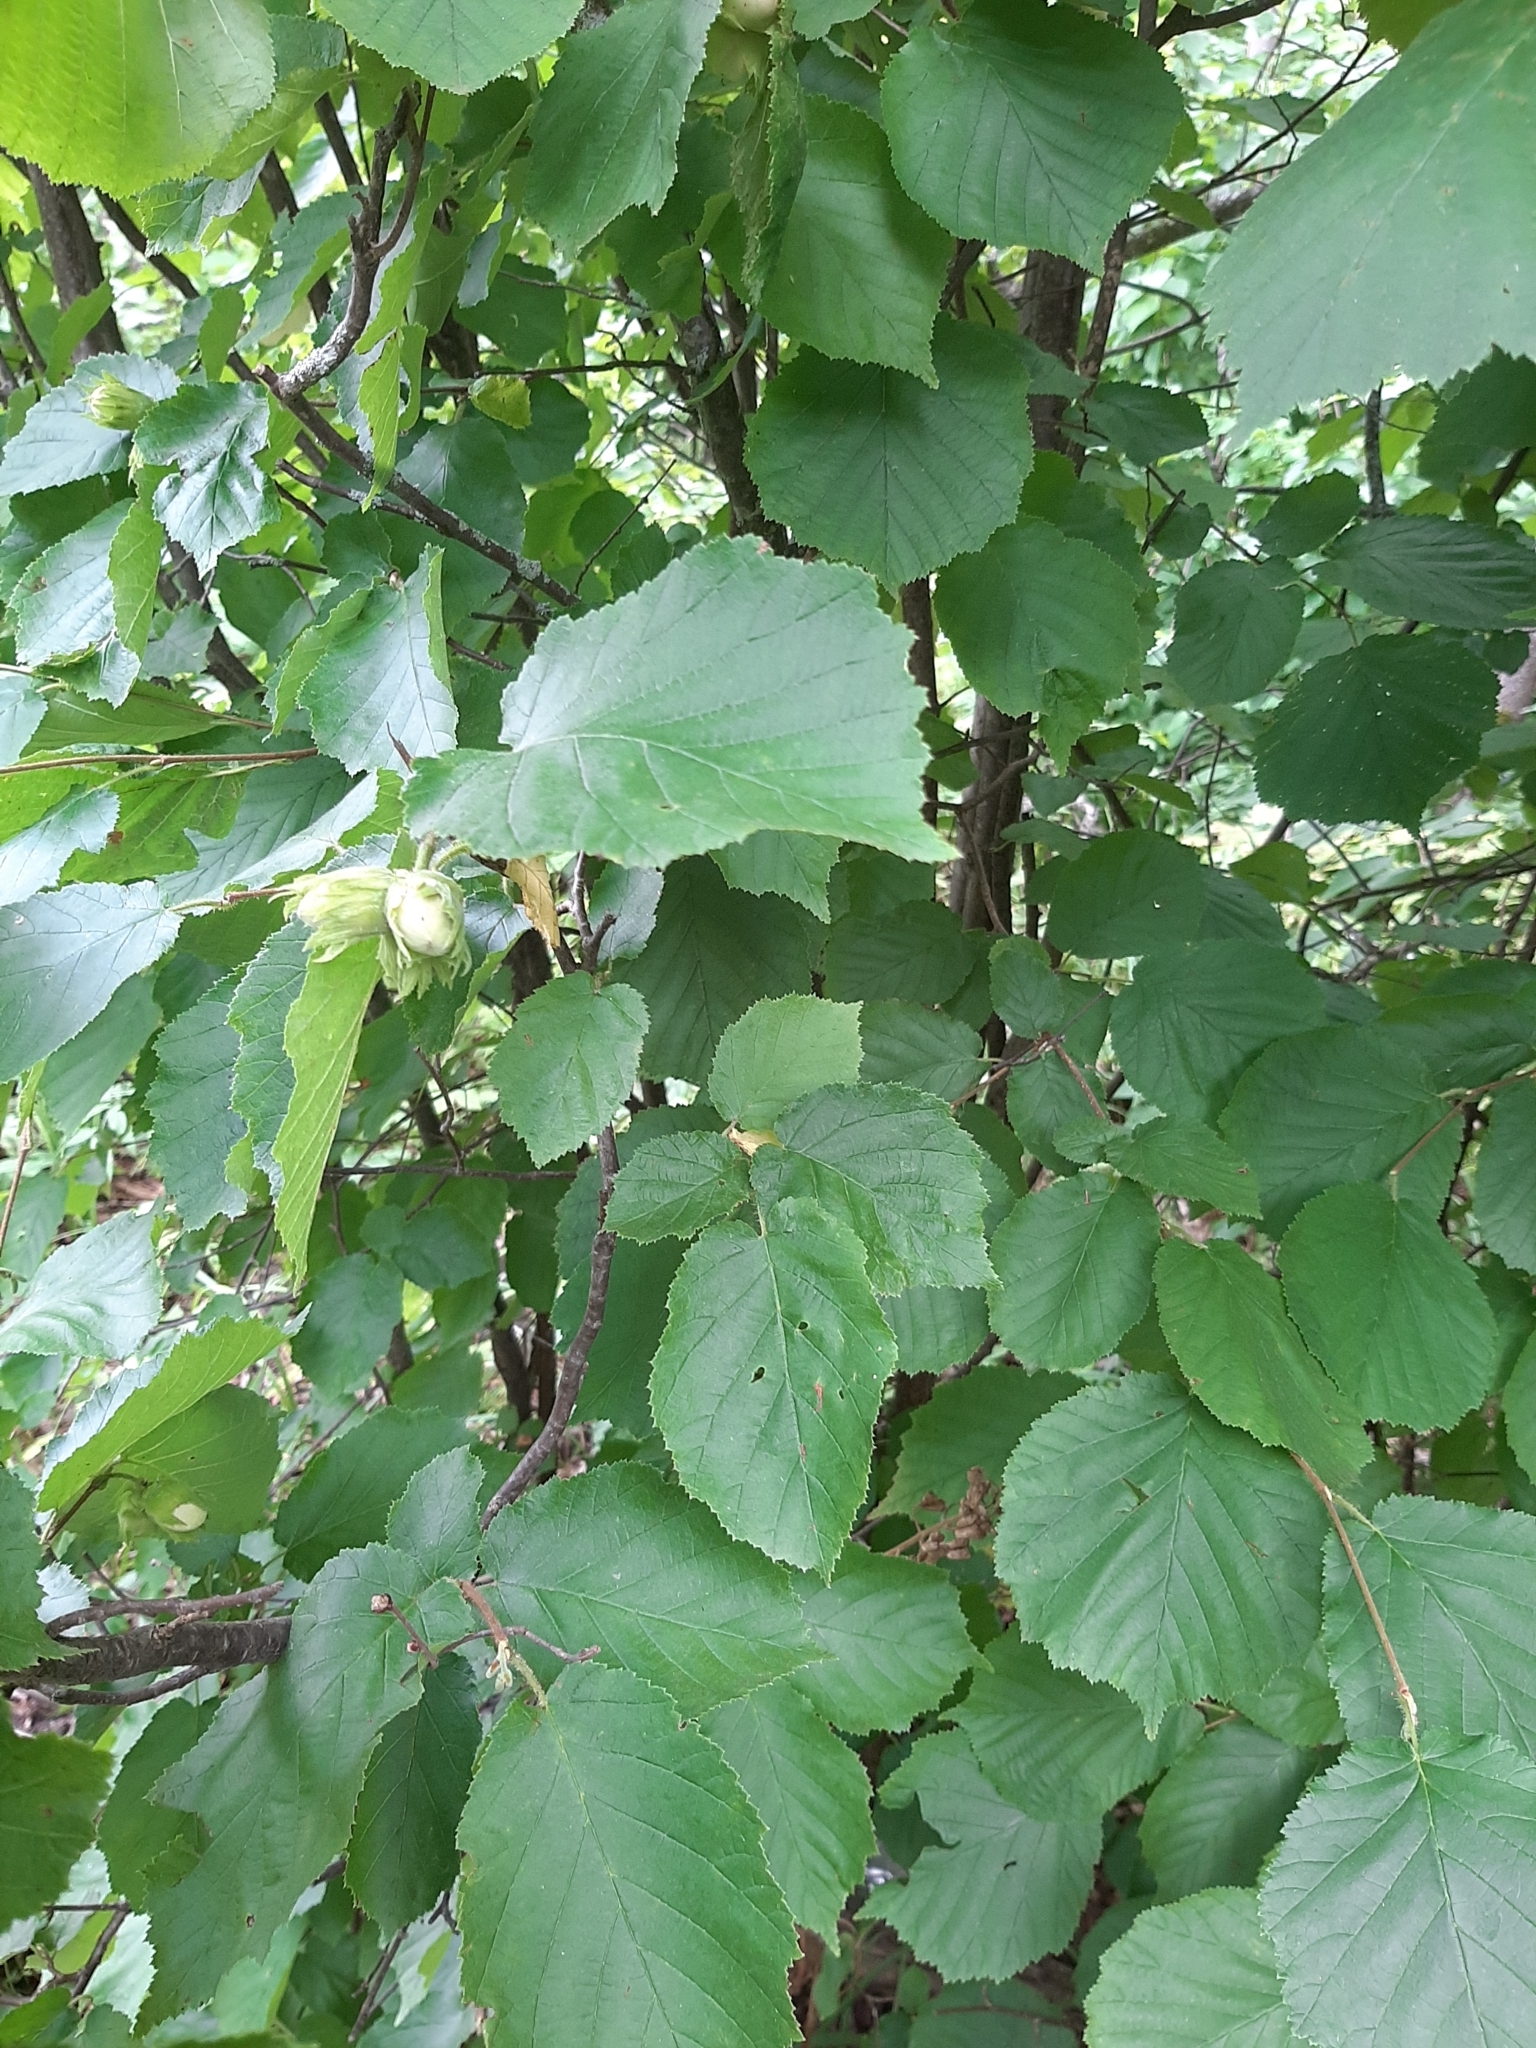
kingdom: Plantae
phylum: Tracheophyta
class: Magnoliopsida
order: Fagales
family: Betulaceae
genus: Corylus
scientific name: Corylus avellana
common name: European hazel
